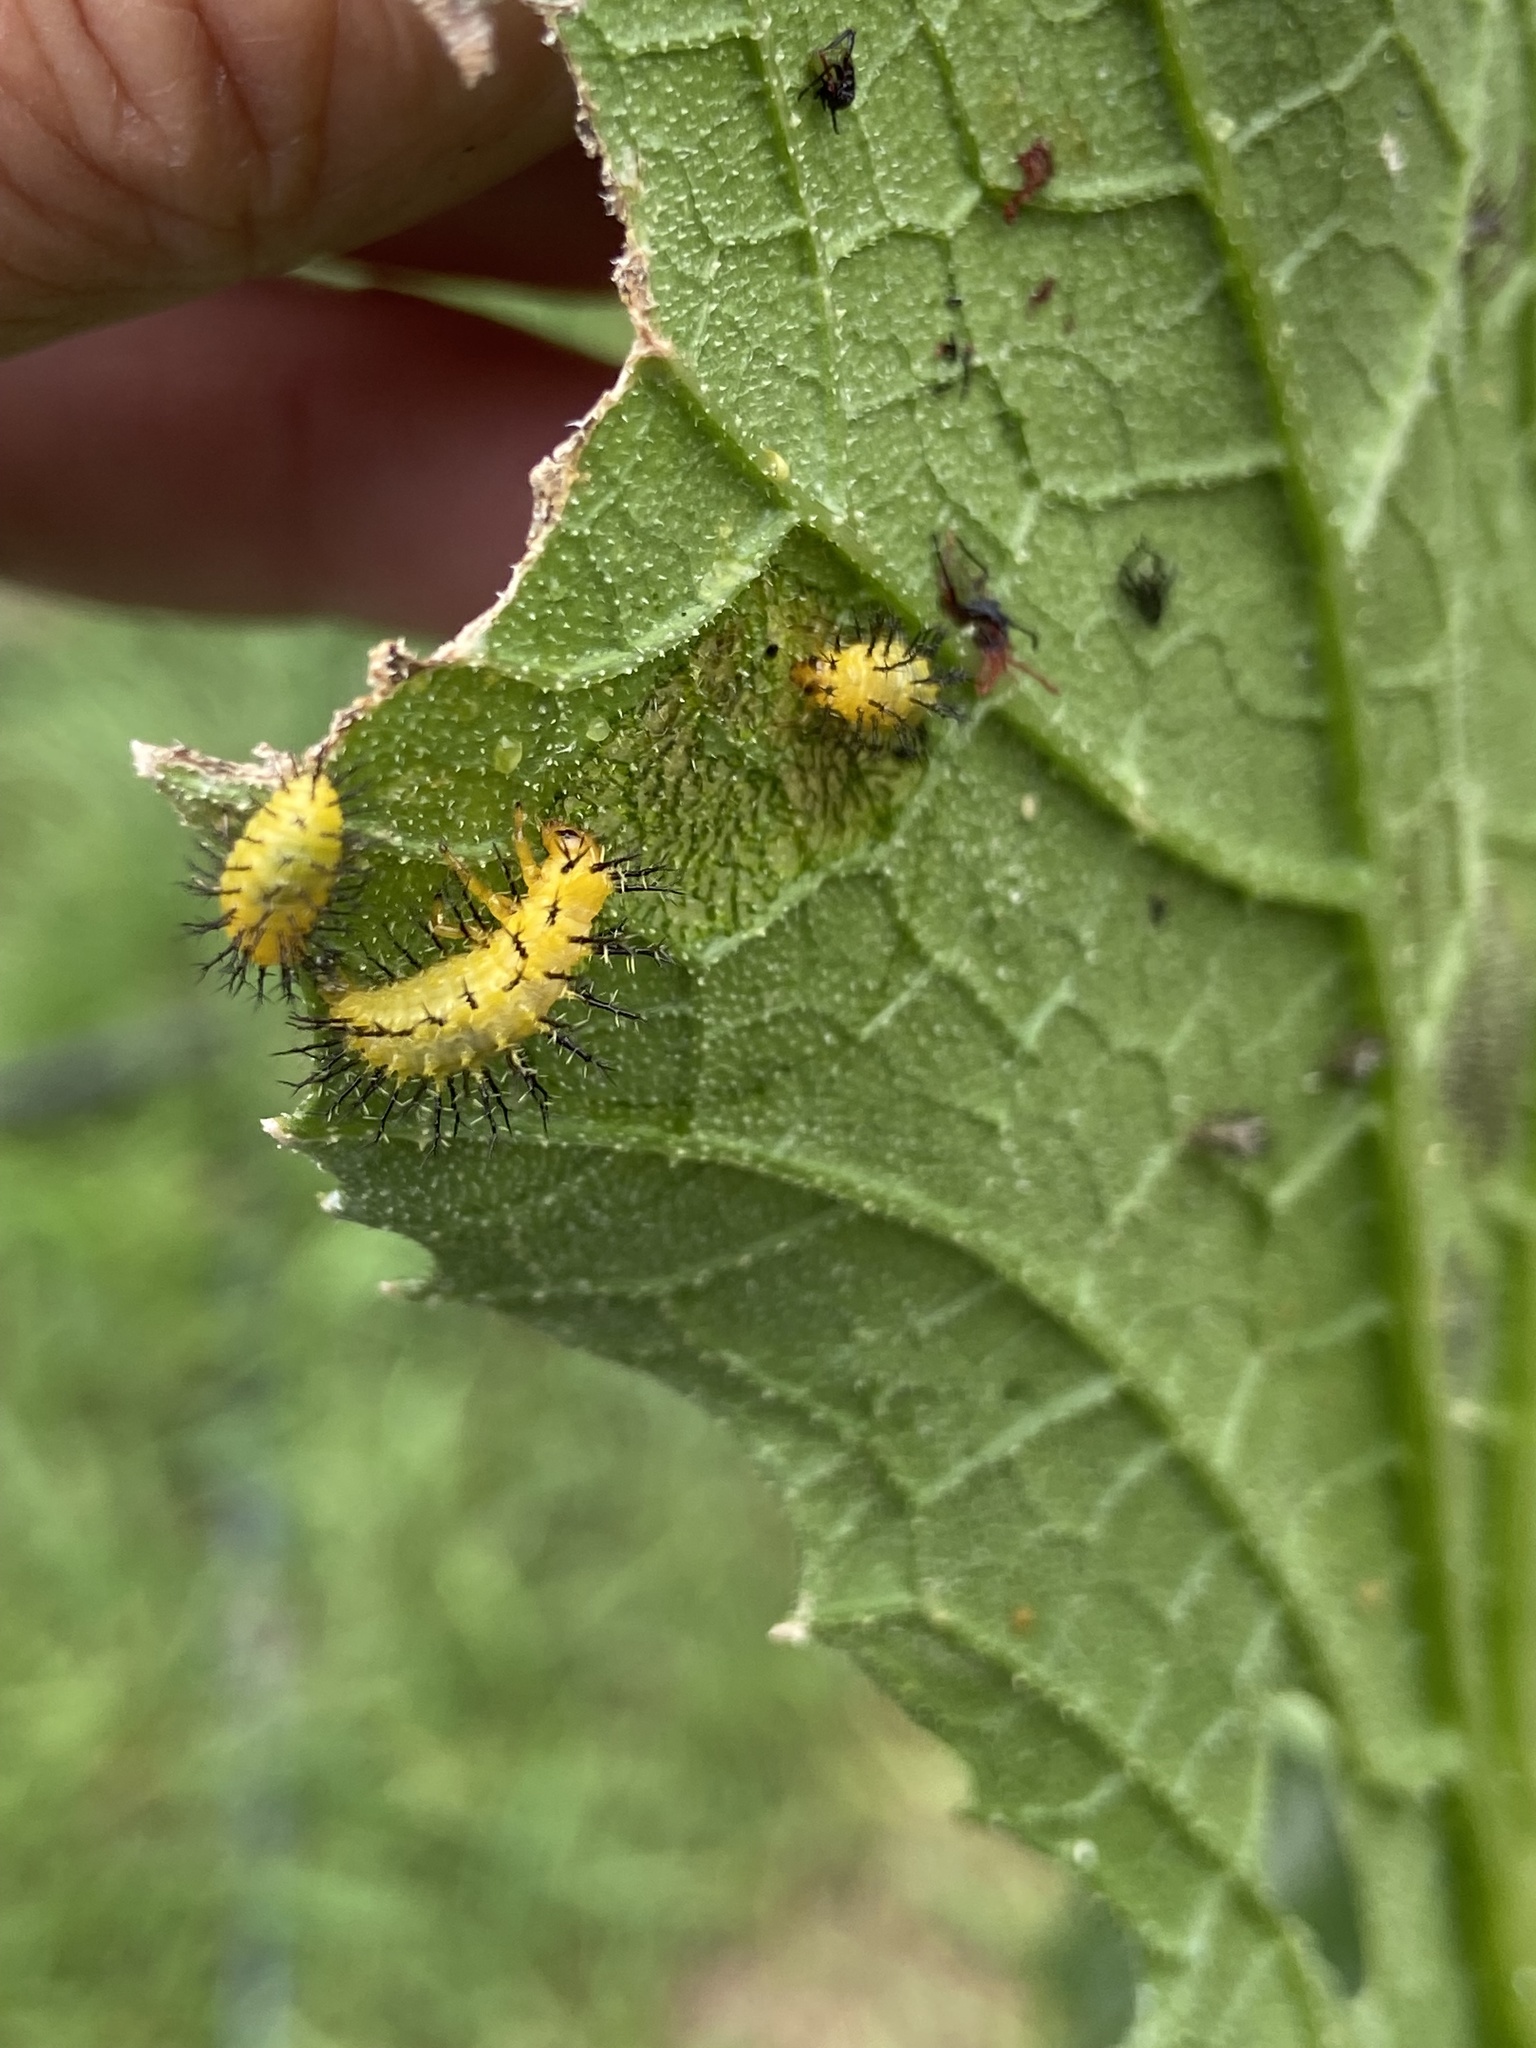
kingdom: Animalia
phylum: Arthropoda
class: Insecta
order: Coleoptera
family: Coccinellidae
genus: Epilachna
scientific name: Epilachna borealis
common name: Squash beetle
